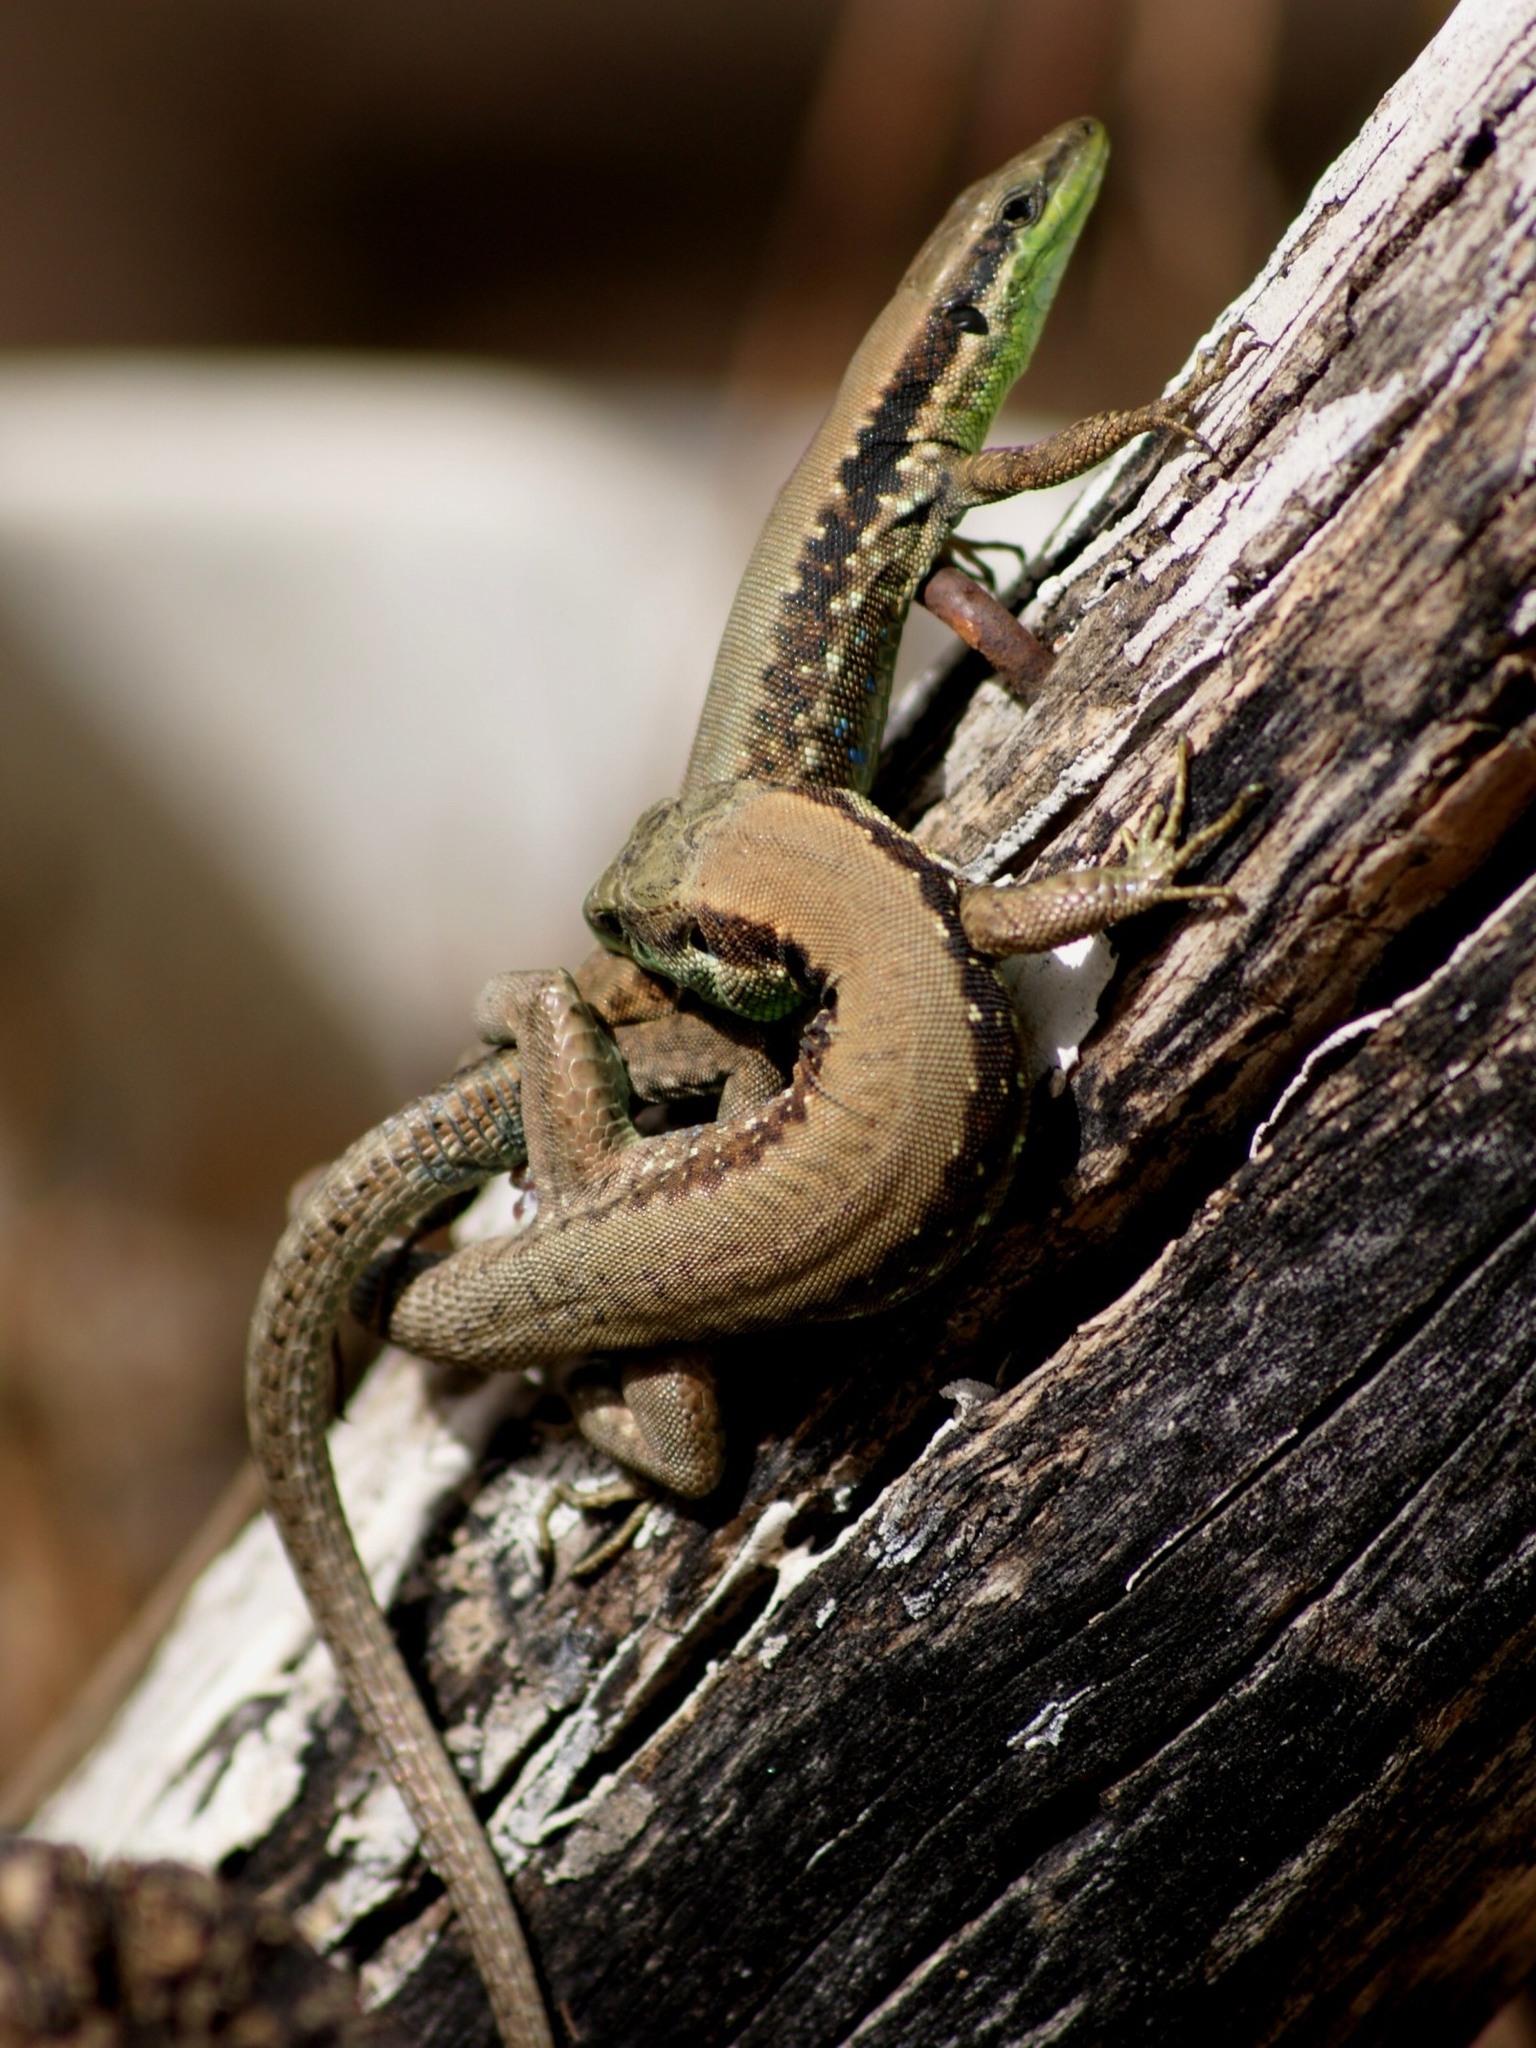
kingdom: Animalia
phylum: Chordata
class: Squamata
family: Lacertidae
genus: Phoenicolacerta
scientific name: Phoenicolacerta laevis
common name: Lebanon lizard
